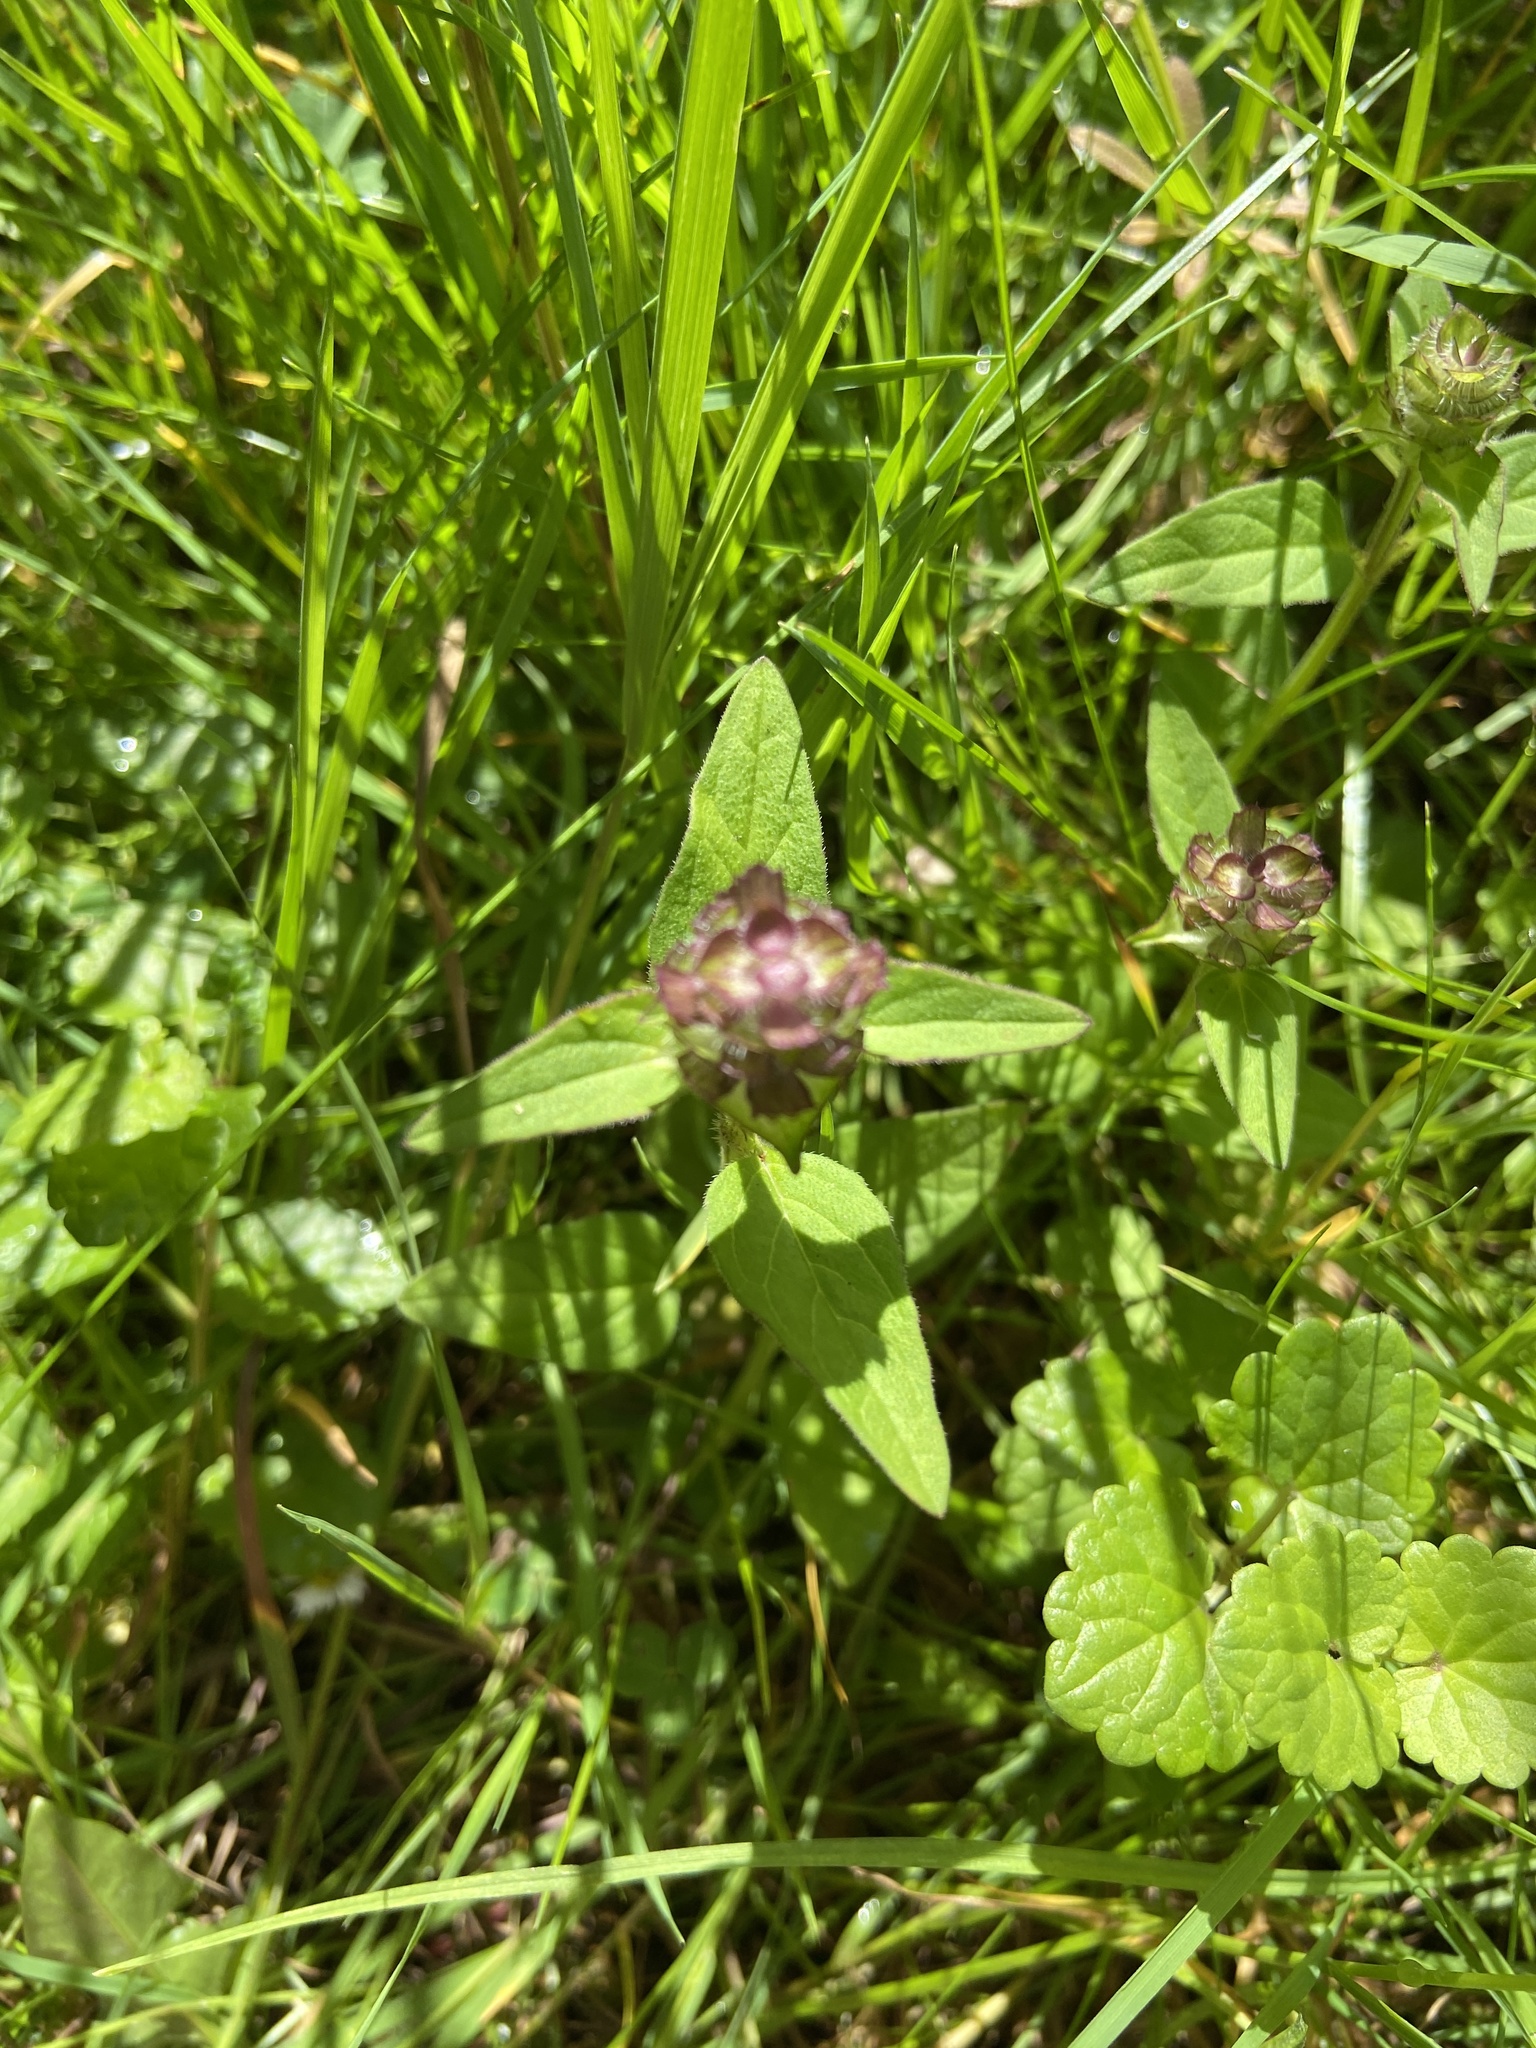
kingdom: Plantae
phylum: Tracheophyta
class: Magnoliopsida
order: Lamiales
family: Lamiaceae
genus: Prunella
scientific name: Prunella vulgaris
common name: Heal-all
